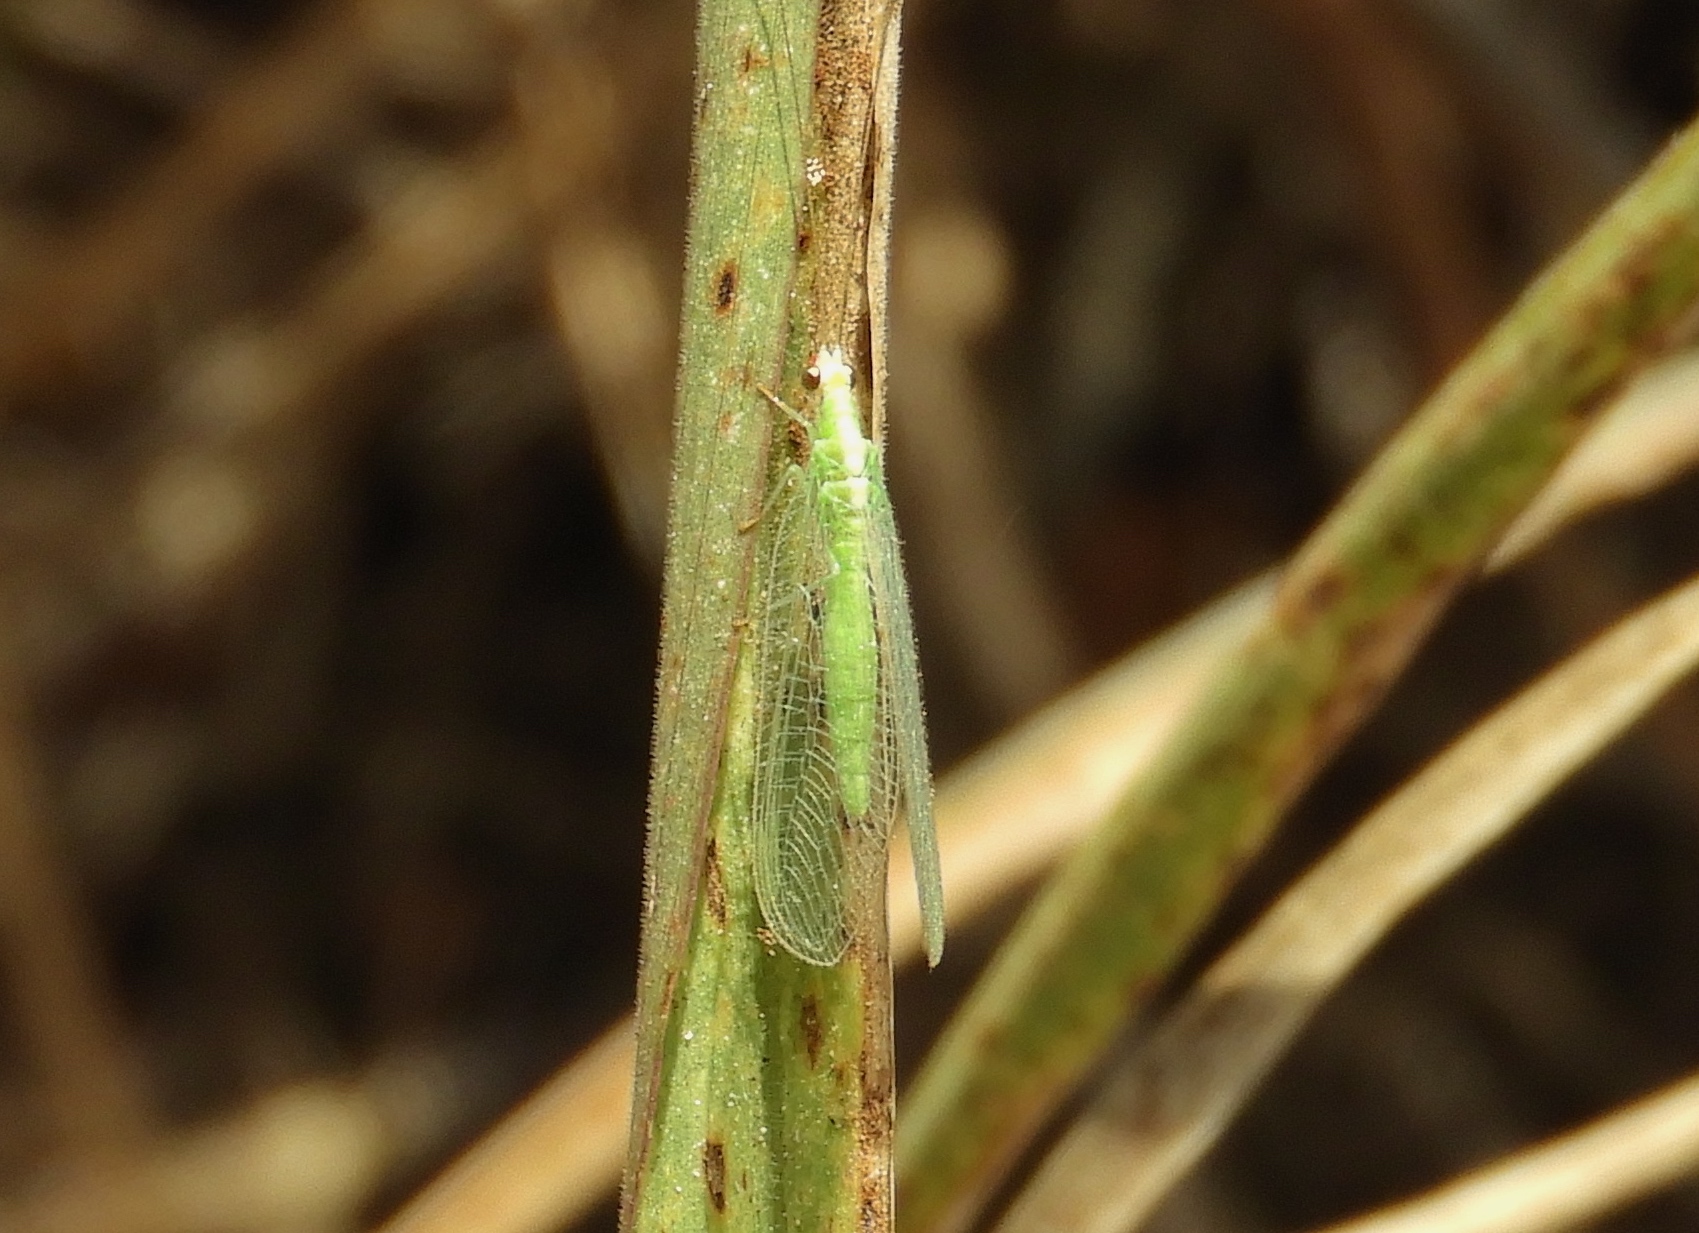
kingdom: Animalia
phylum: Arthropoda
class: Insecta
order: Neuroptera
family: Chrysopidae
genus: Chrysoperla
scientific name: Chrysoperla
